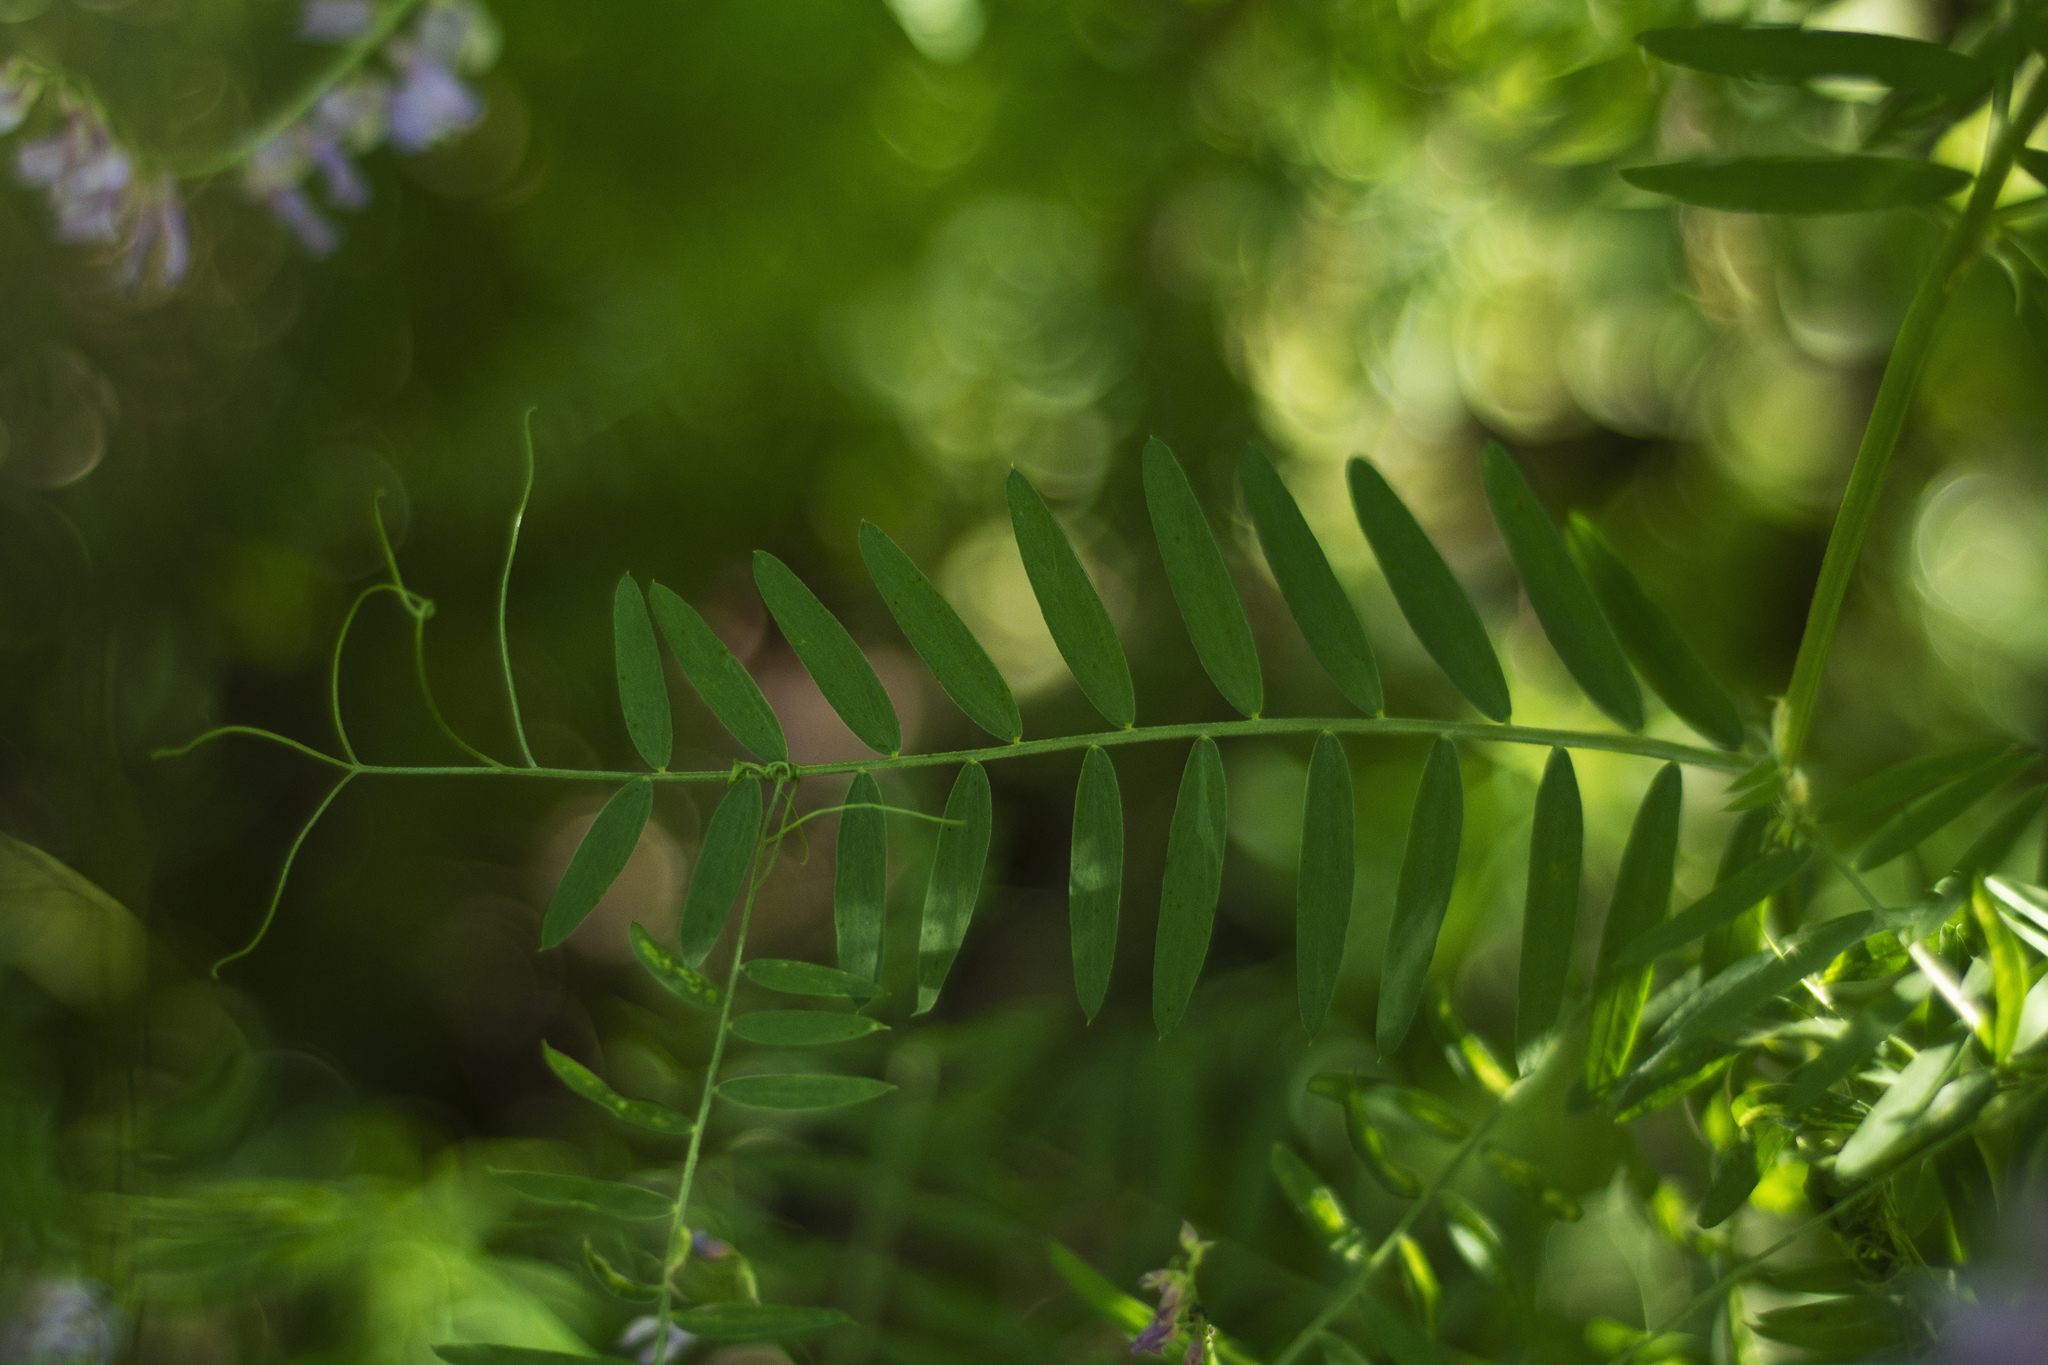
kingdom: Plantae
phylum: Tracheophyta
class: Magnoliopsida
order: Fabales
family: Fabaceae
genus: Vicia
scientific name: Vicia cracca
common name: Bird vetch
